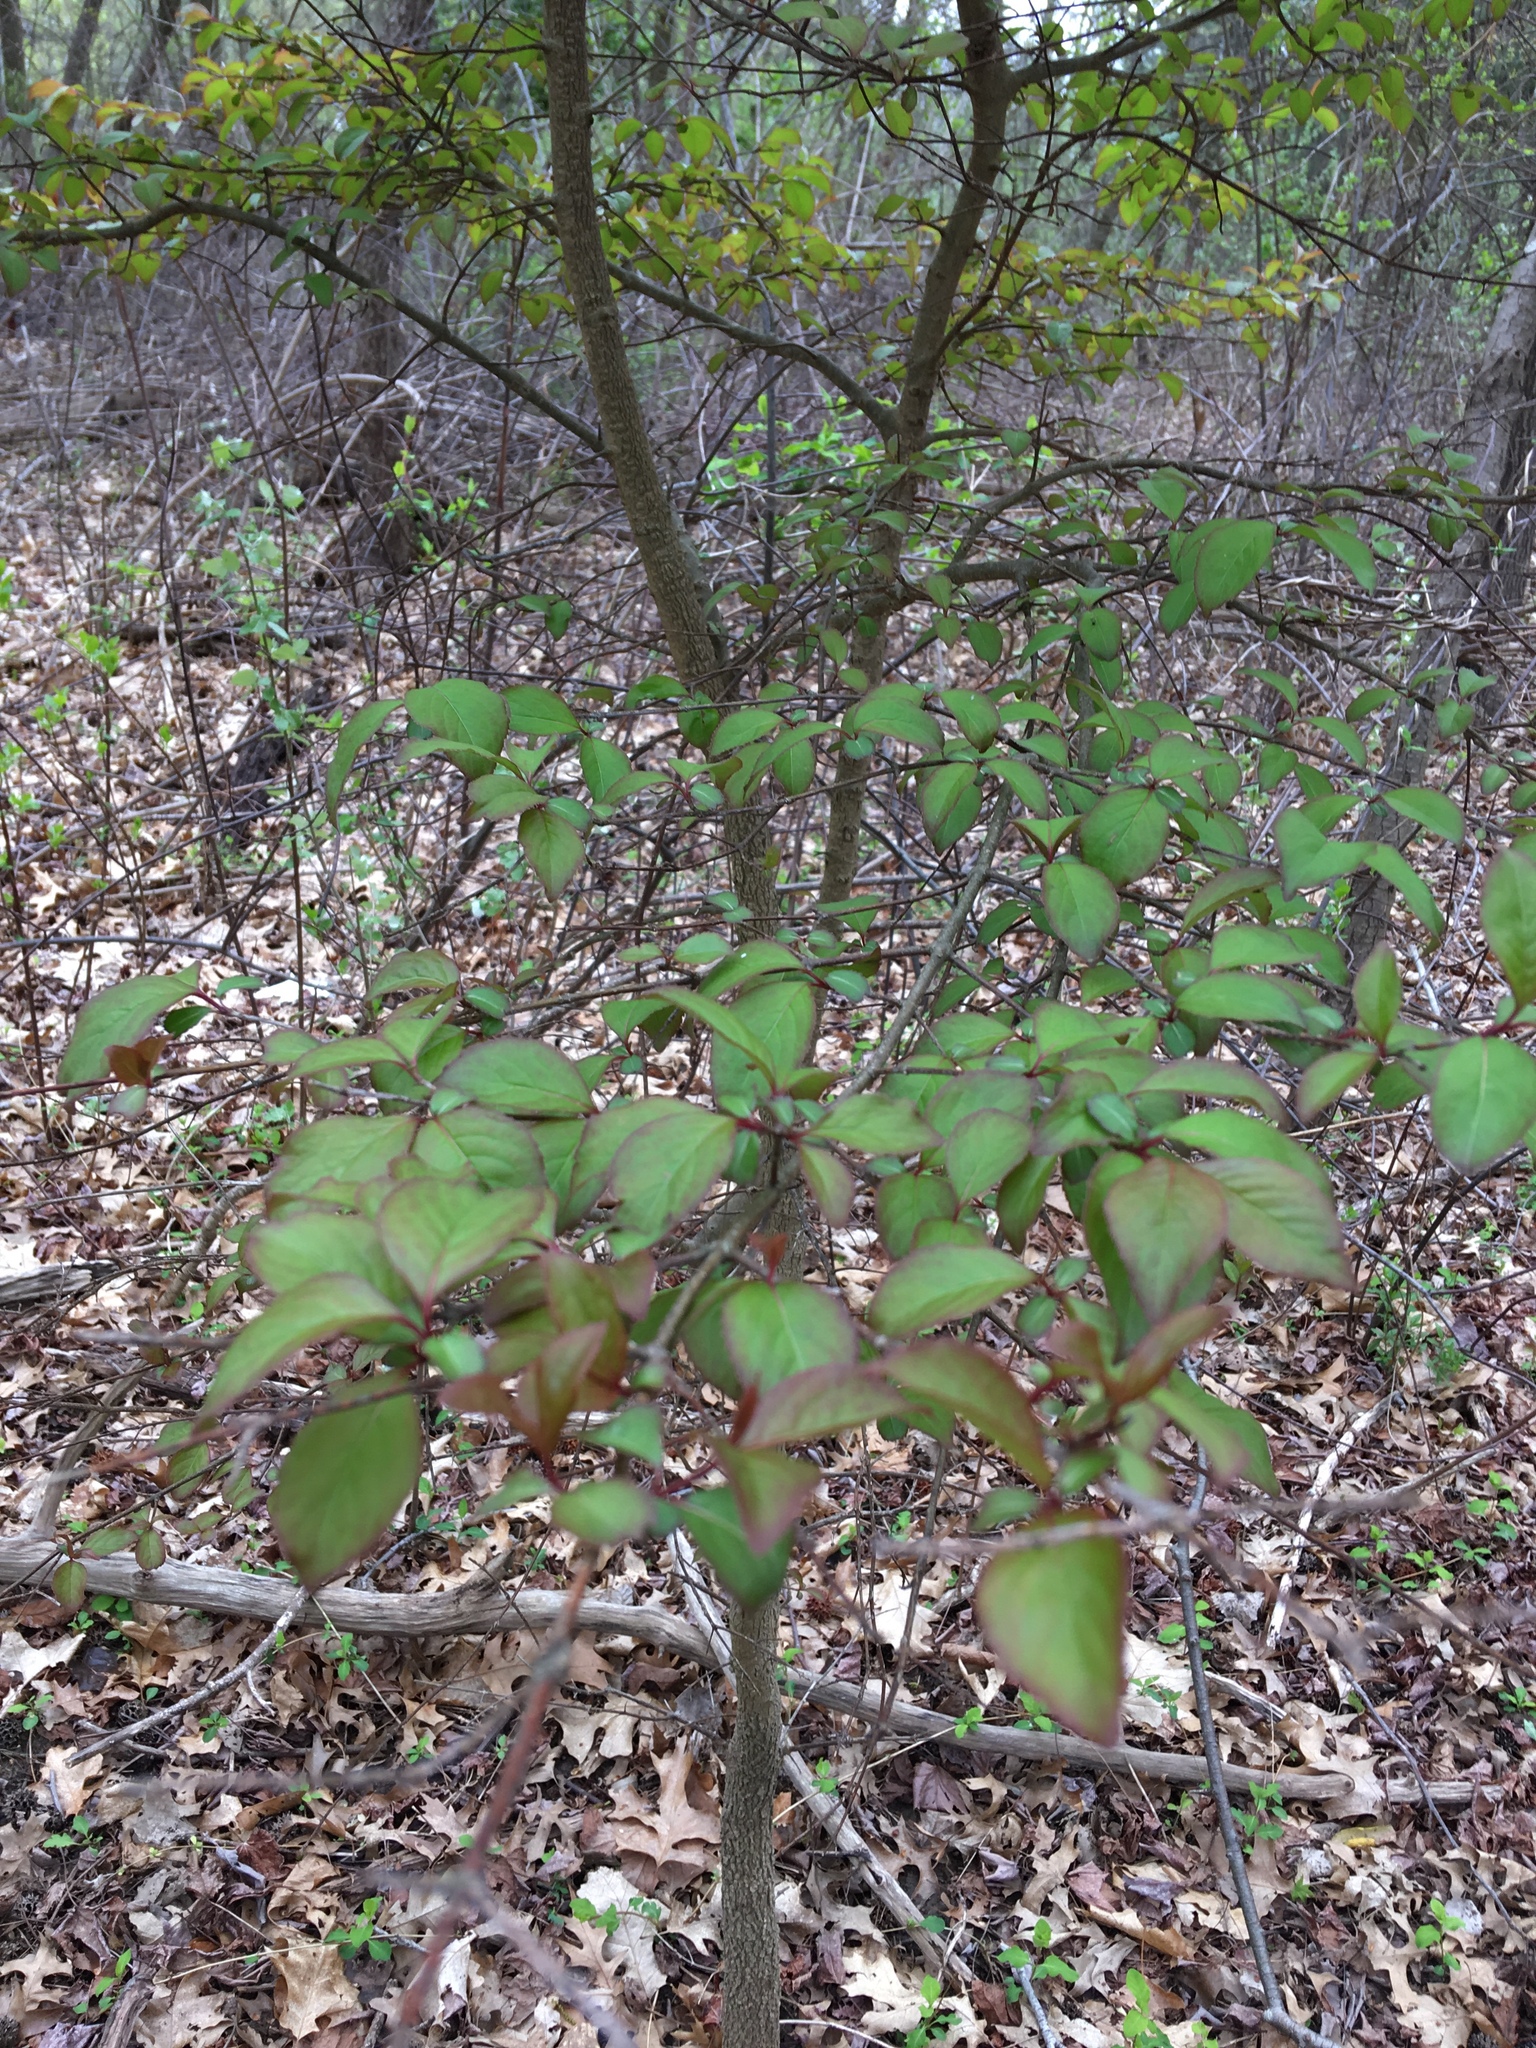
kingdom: Plantae
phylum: Tracheophyta
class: Magnoliopsida
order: Dipsacales
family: Viburnaceae
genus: Viburnum
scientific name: Viburnum prunifolium
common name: Black haw
